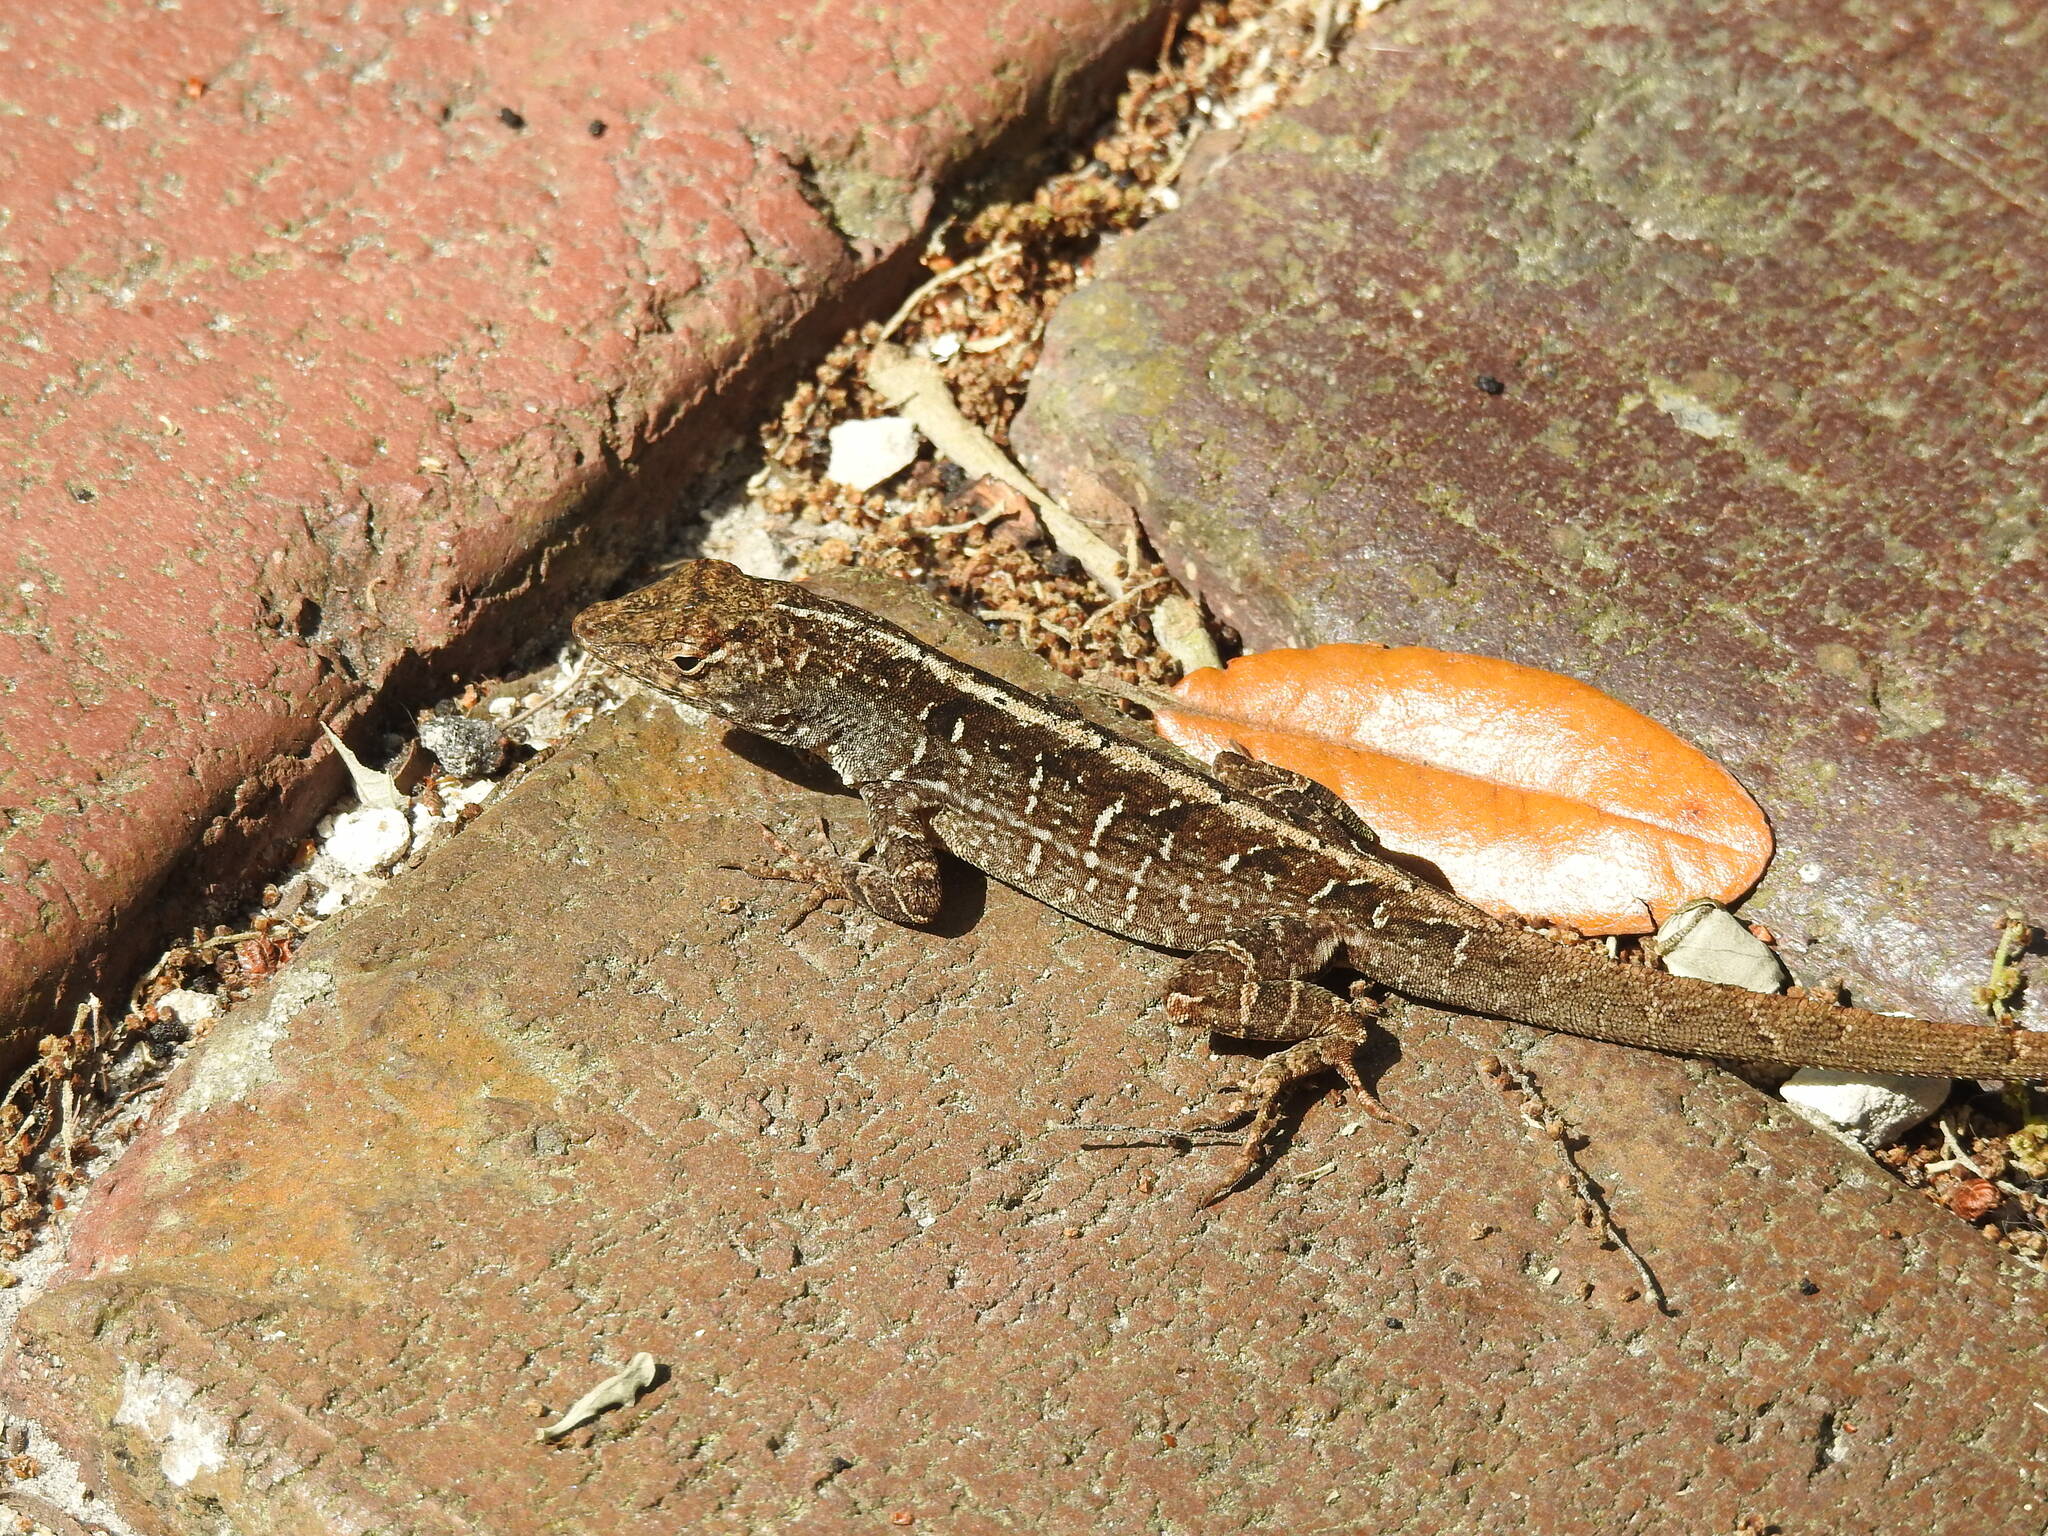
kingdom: Animalia
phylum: Chordata
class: Squamata
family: Dactyloidae
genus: Anolis
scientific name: Anolis sagrei
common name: Brown anole
